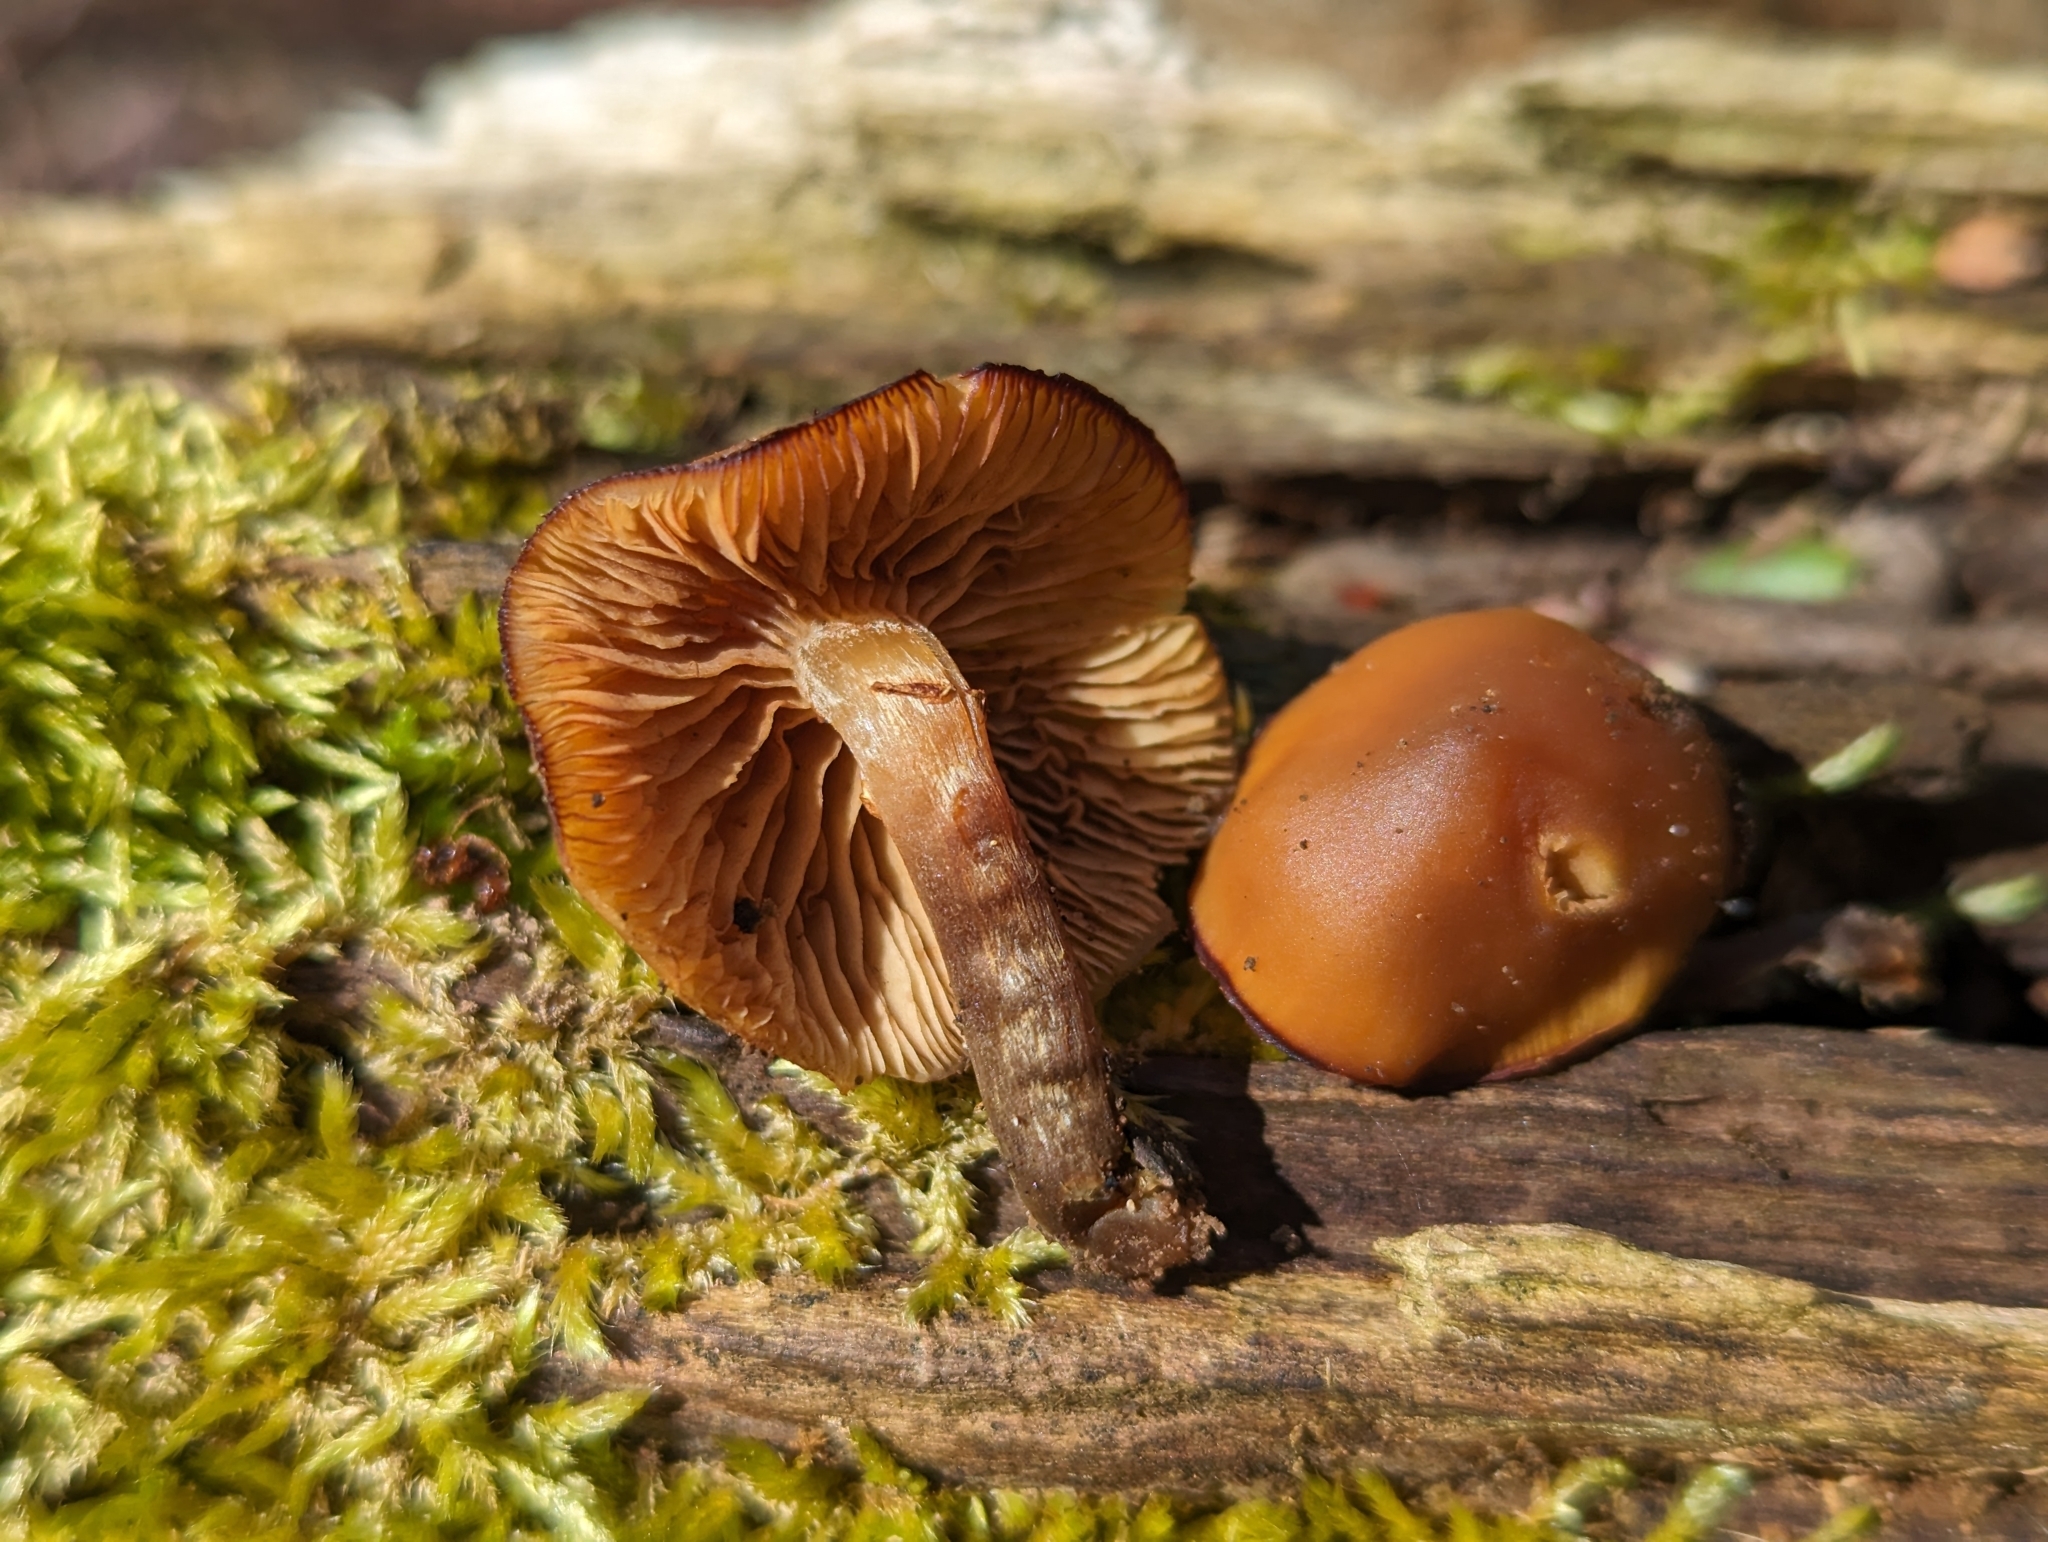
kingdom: Fungi
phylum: Basidiomycota
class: Agaricomycetes
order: Agaricales
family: Hymenogastraceae
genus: Galerina
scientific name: Galerina marginata
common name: Funeral bell
